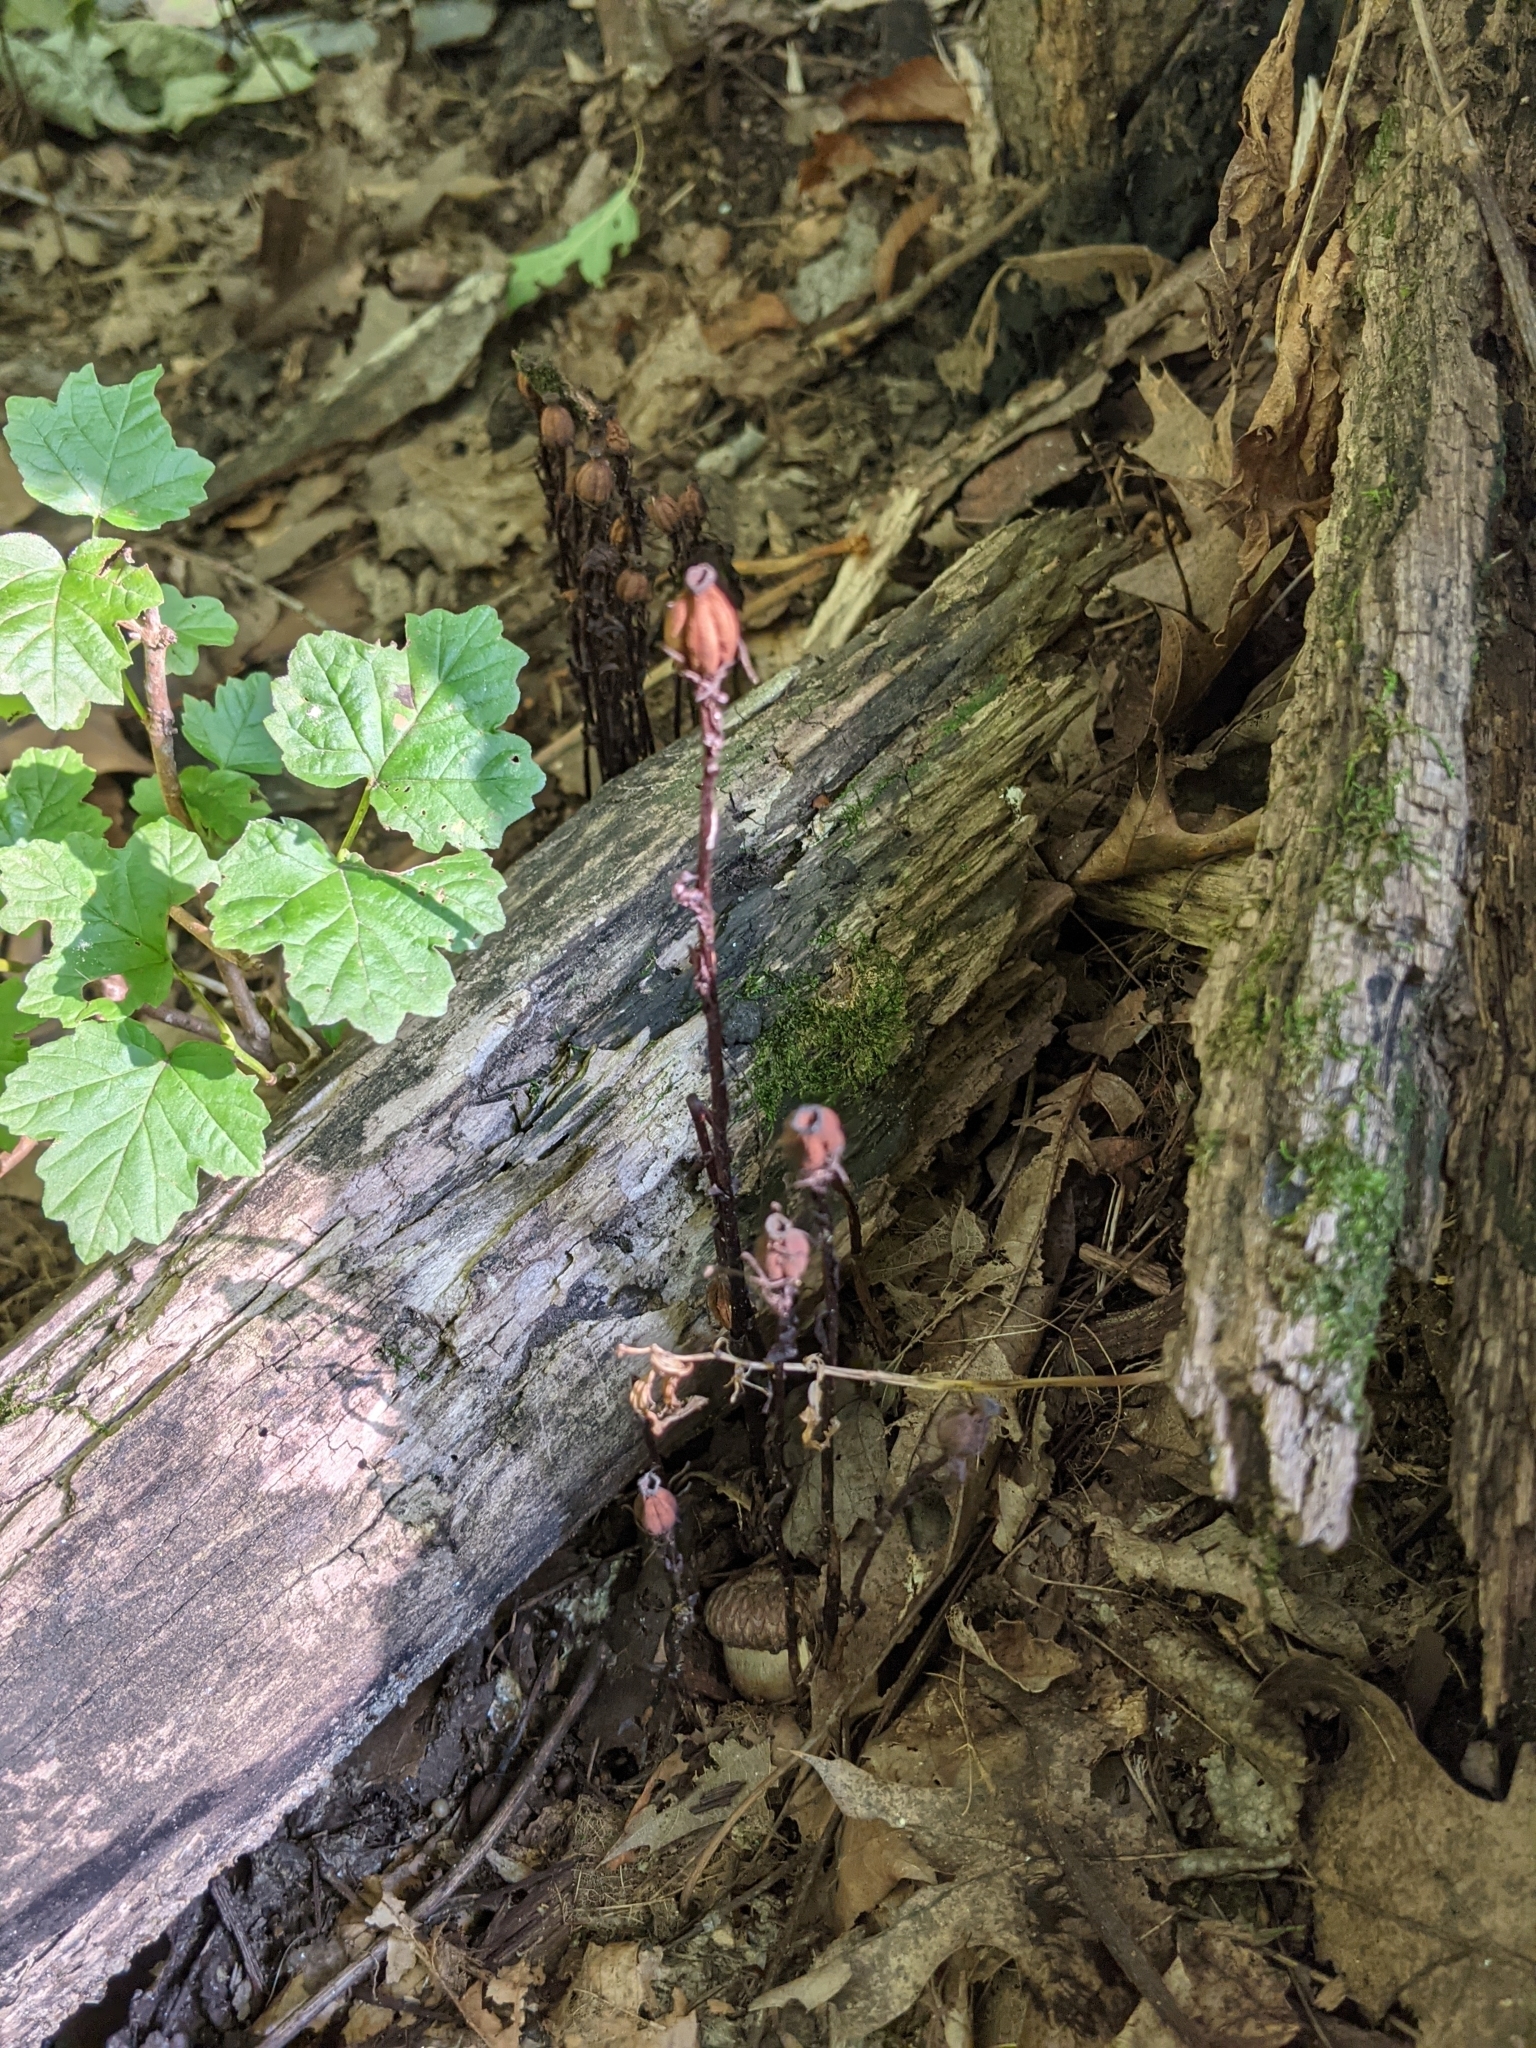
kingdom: Plantae
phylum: Tracheophyta
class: Magnoliopsida
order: Ericales
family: Ericaceae
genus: Monotropa
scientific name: Monotropa uniflora
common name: Convulsion root
